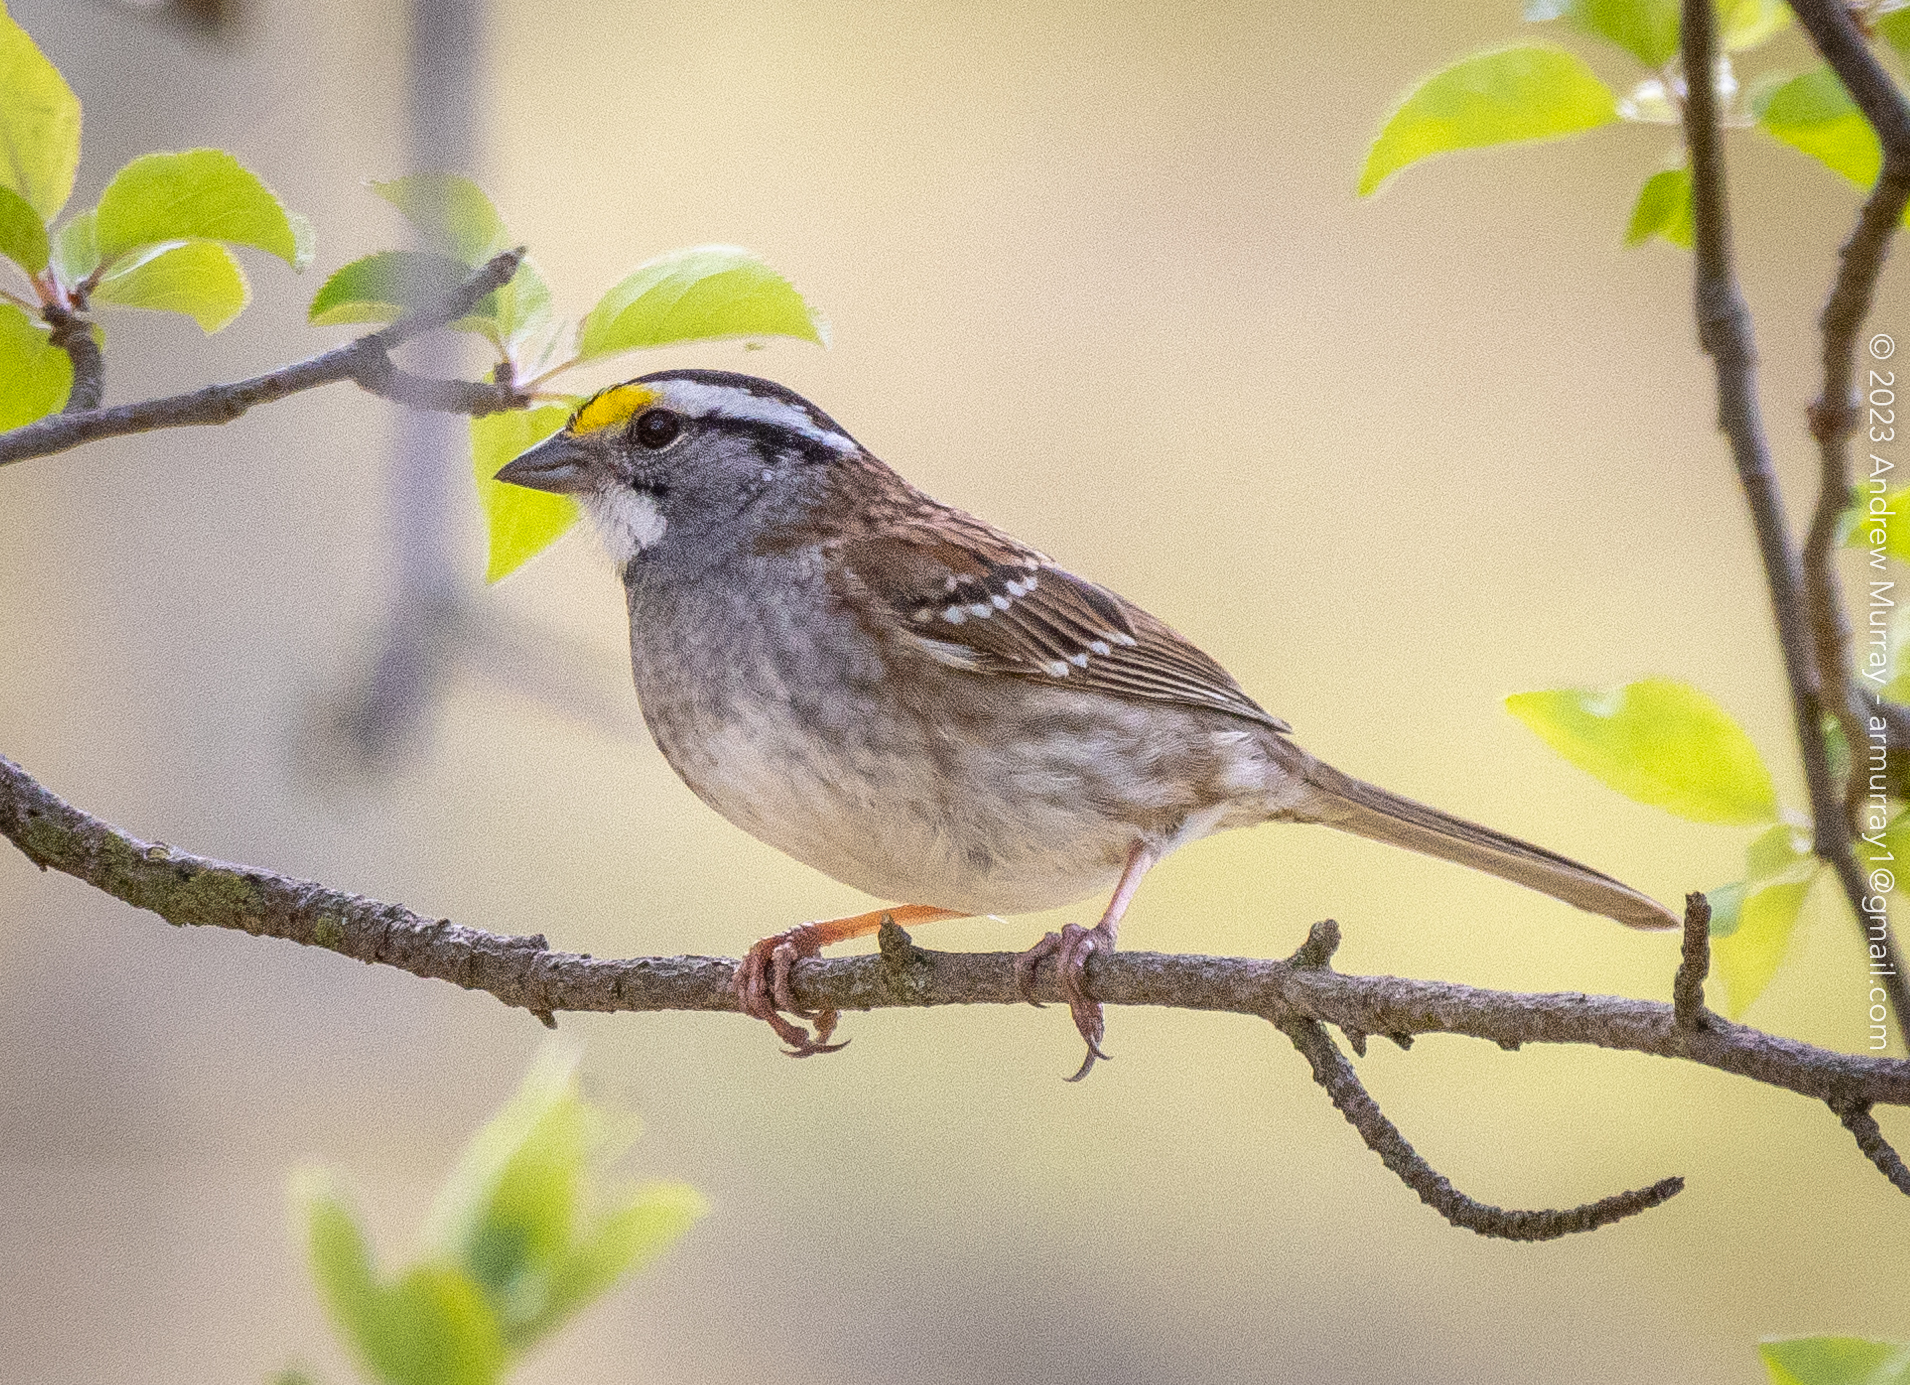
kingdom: Animalia
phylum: Chordata
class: Aves
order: Passeriformes
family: Passerellidae
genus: Zonotrichia
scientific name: Zonotrichia albicollis
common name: White-throated sparrow
